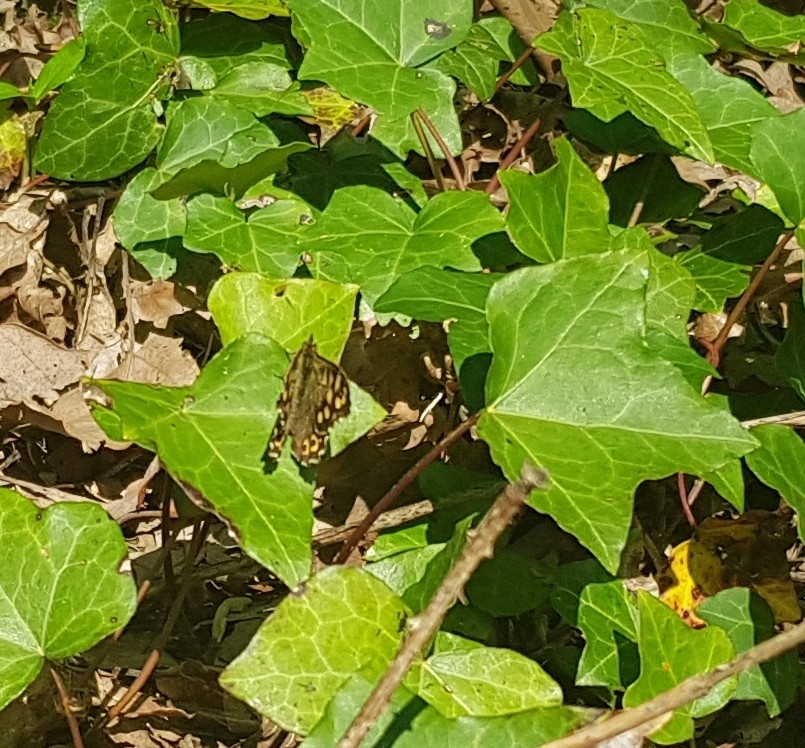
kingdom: Animalia
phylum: Arthropoda
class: Insecta
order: Lepidoptera
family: Nymphalidae
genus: Pararge
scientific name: Pararge aegeria
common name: Speckled wood
